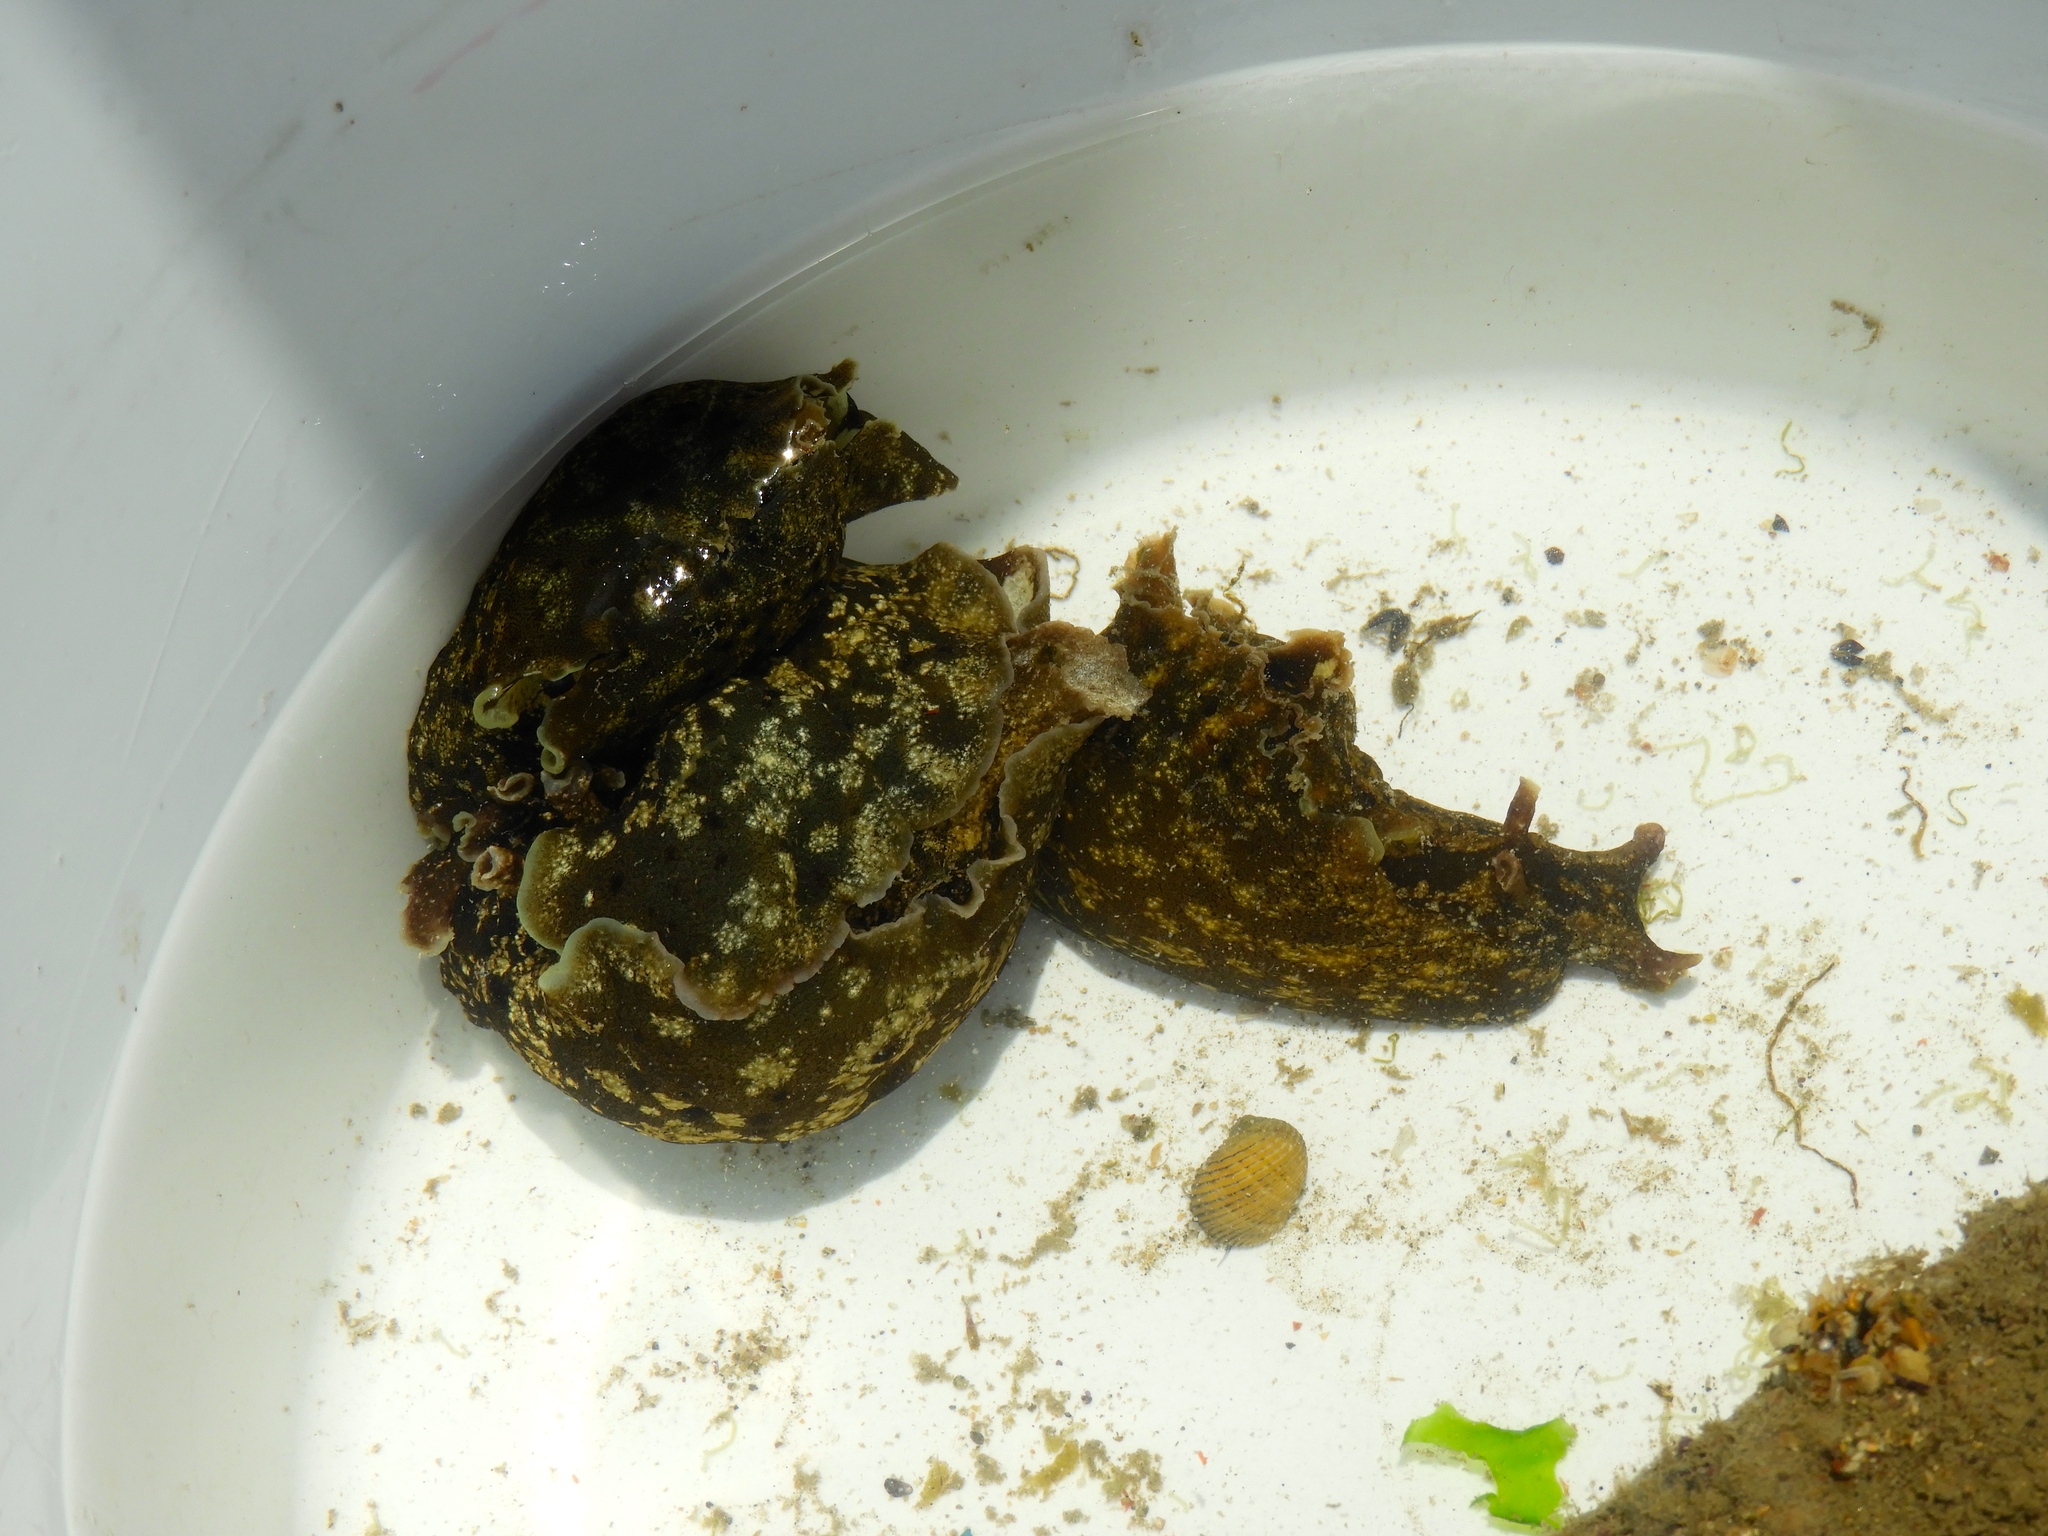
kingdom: Animalia
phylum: Mollusca
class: Gastropoda
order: Aplysiida
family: Aplysiidae
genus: Aplysia
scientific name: Aplysia californica
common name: California seahare
